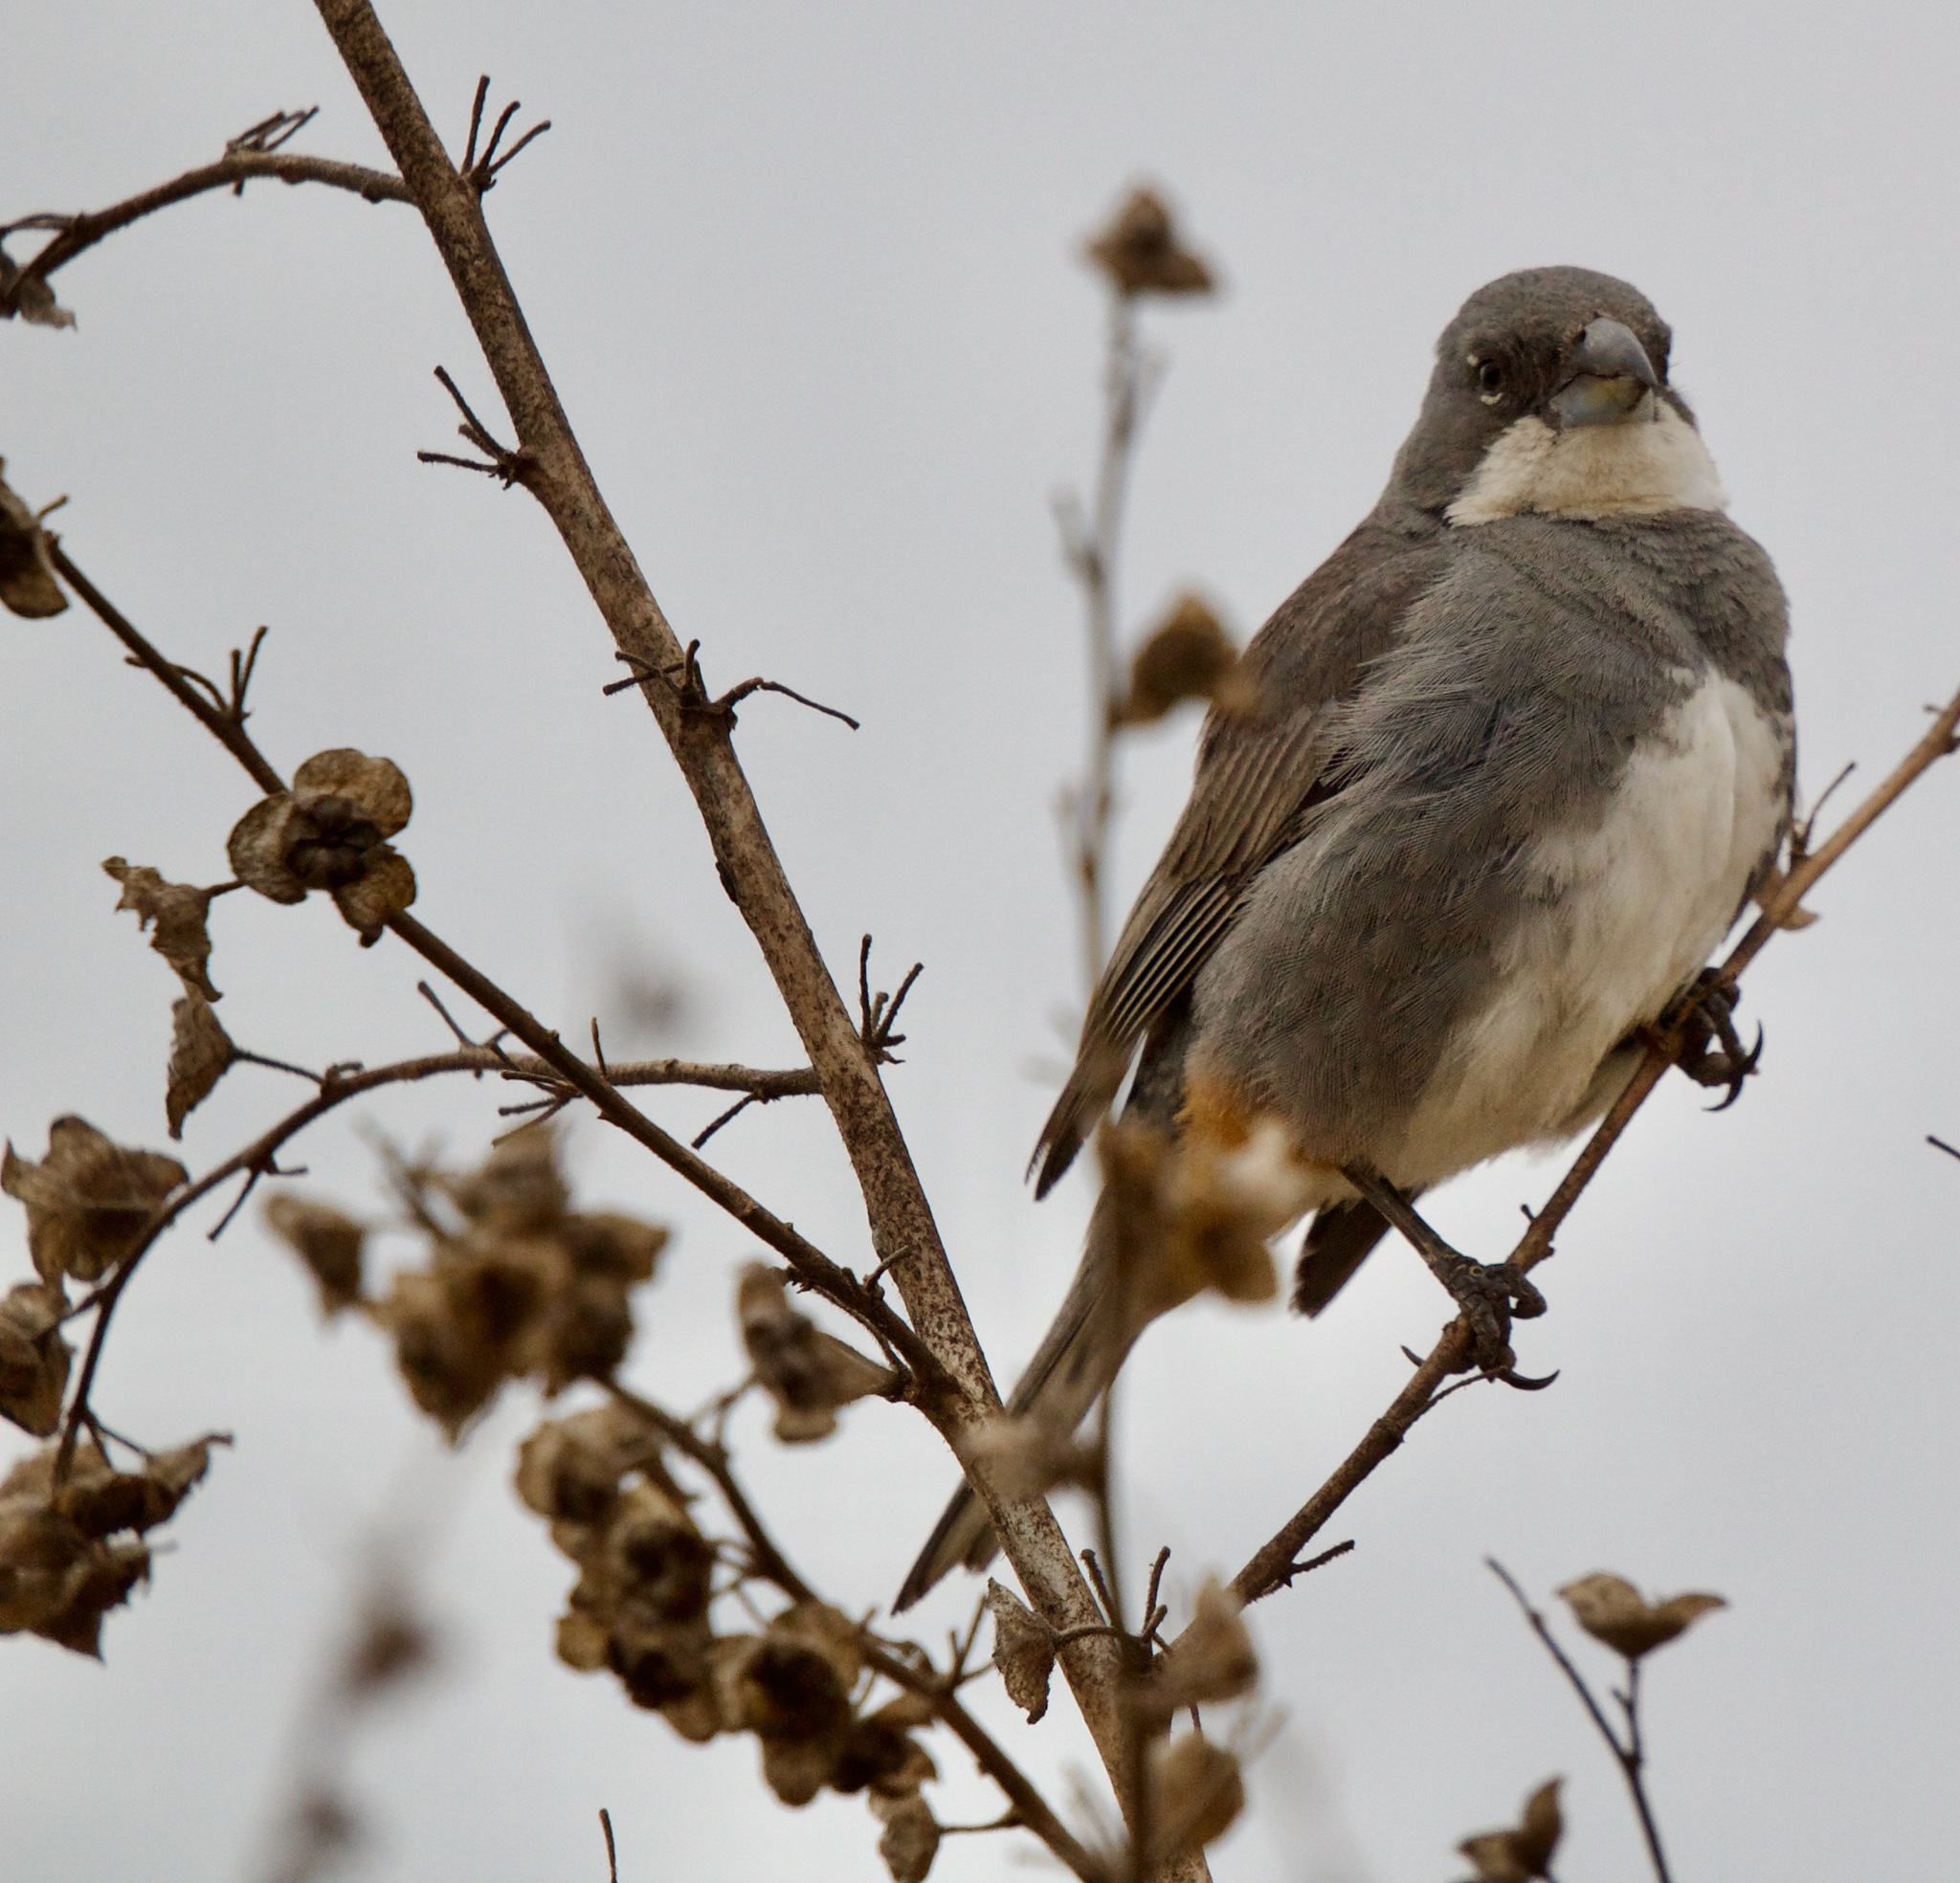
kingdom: Animalia
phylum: Chordata
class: Aves
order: Passeriformes
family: Thraupidae
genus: Diuca
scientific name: Diuca diuca
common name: Common diuca finch
